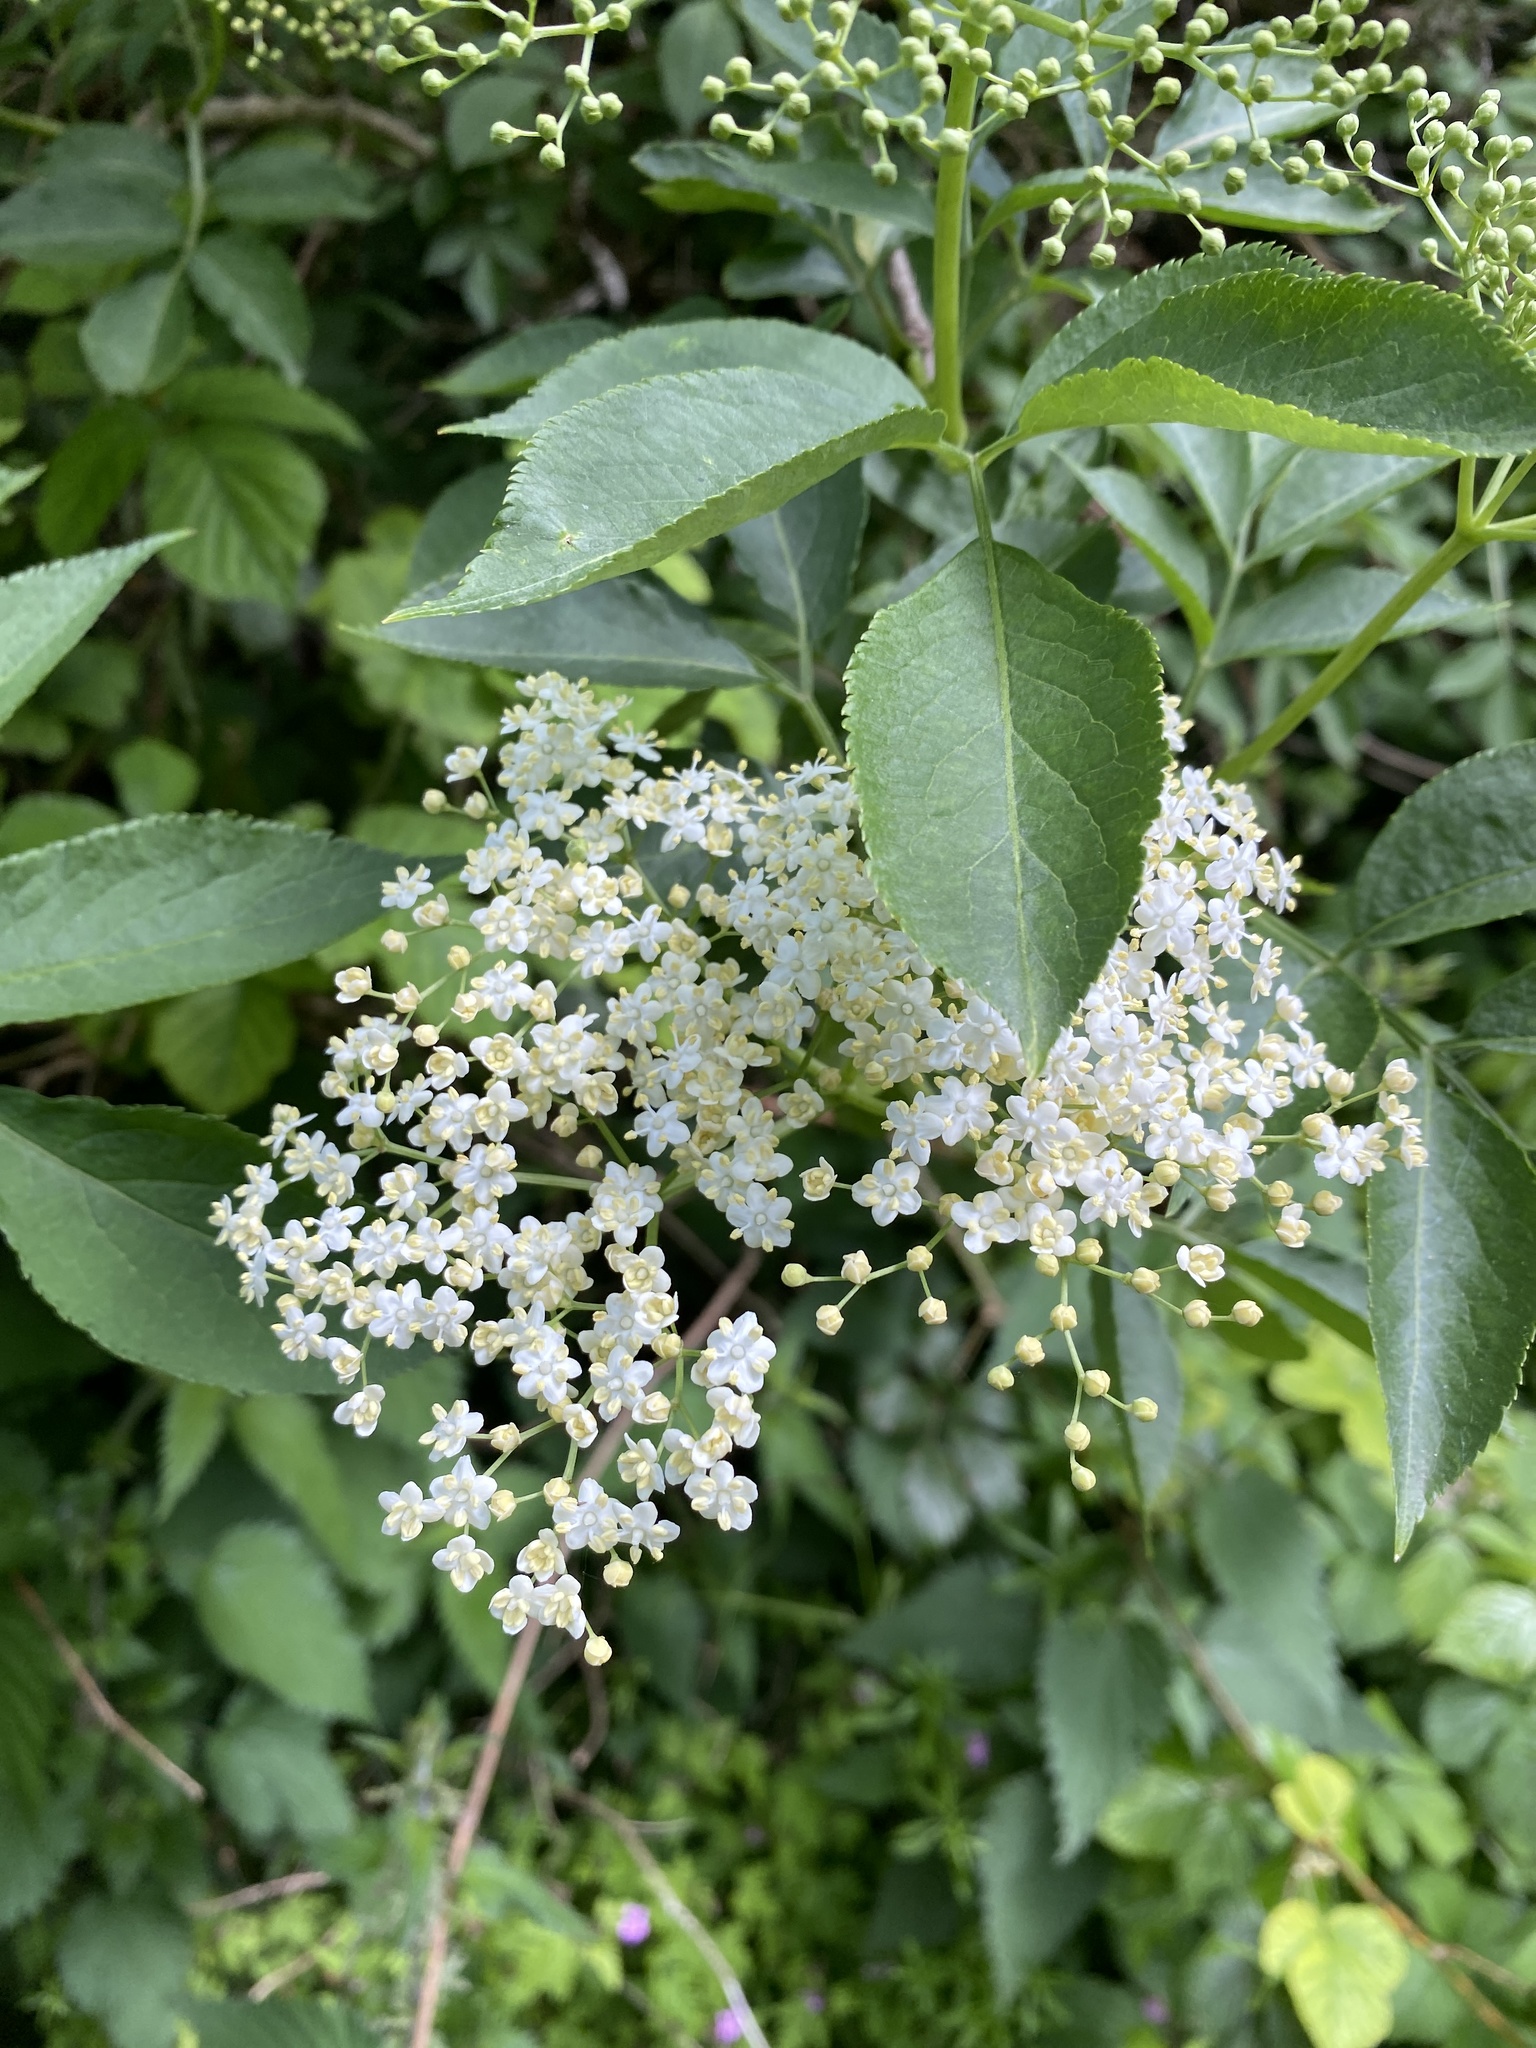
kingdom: Plantae
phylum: Tracheophyta
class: Magnoliopsida
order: Dipsacales
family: Viburnaceae
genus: Sambucus
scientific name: Sambucus nigra
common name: Elder
